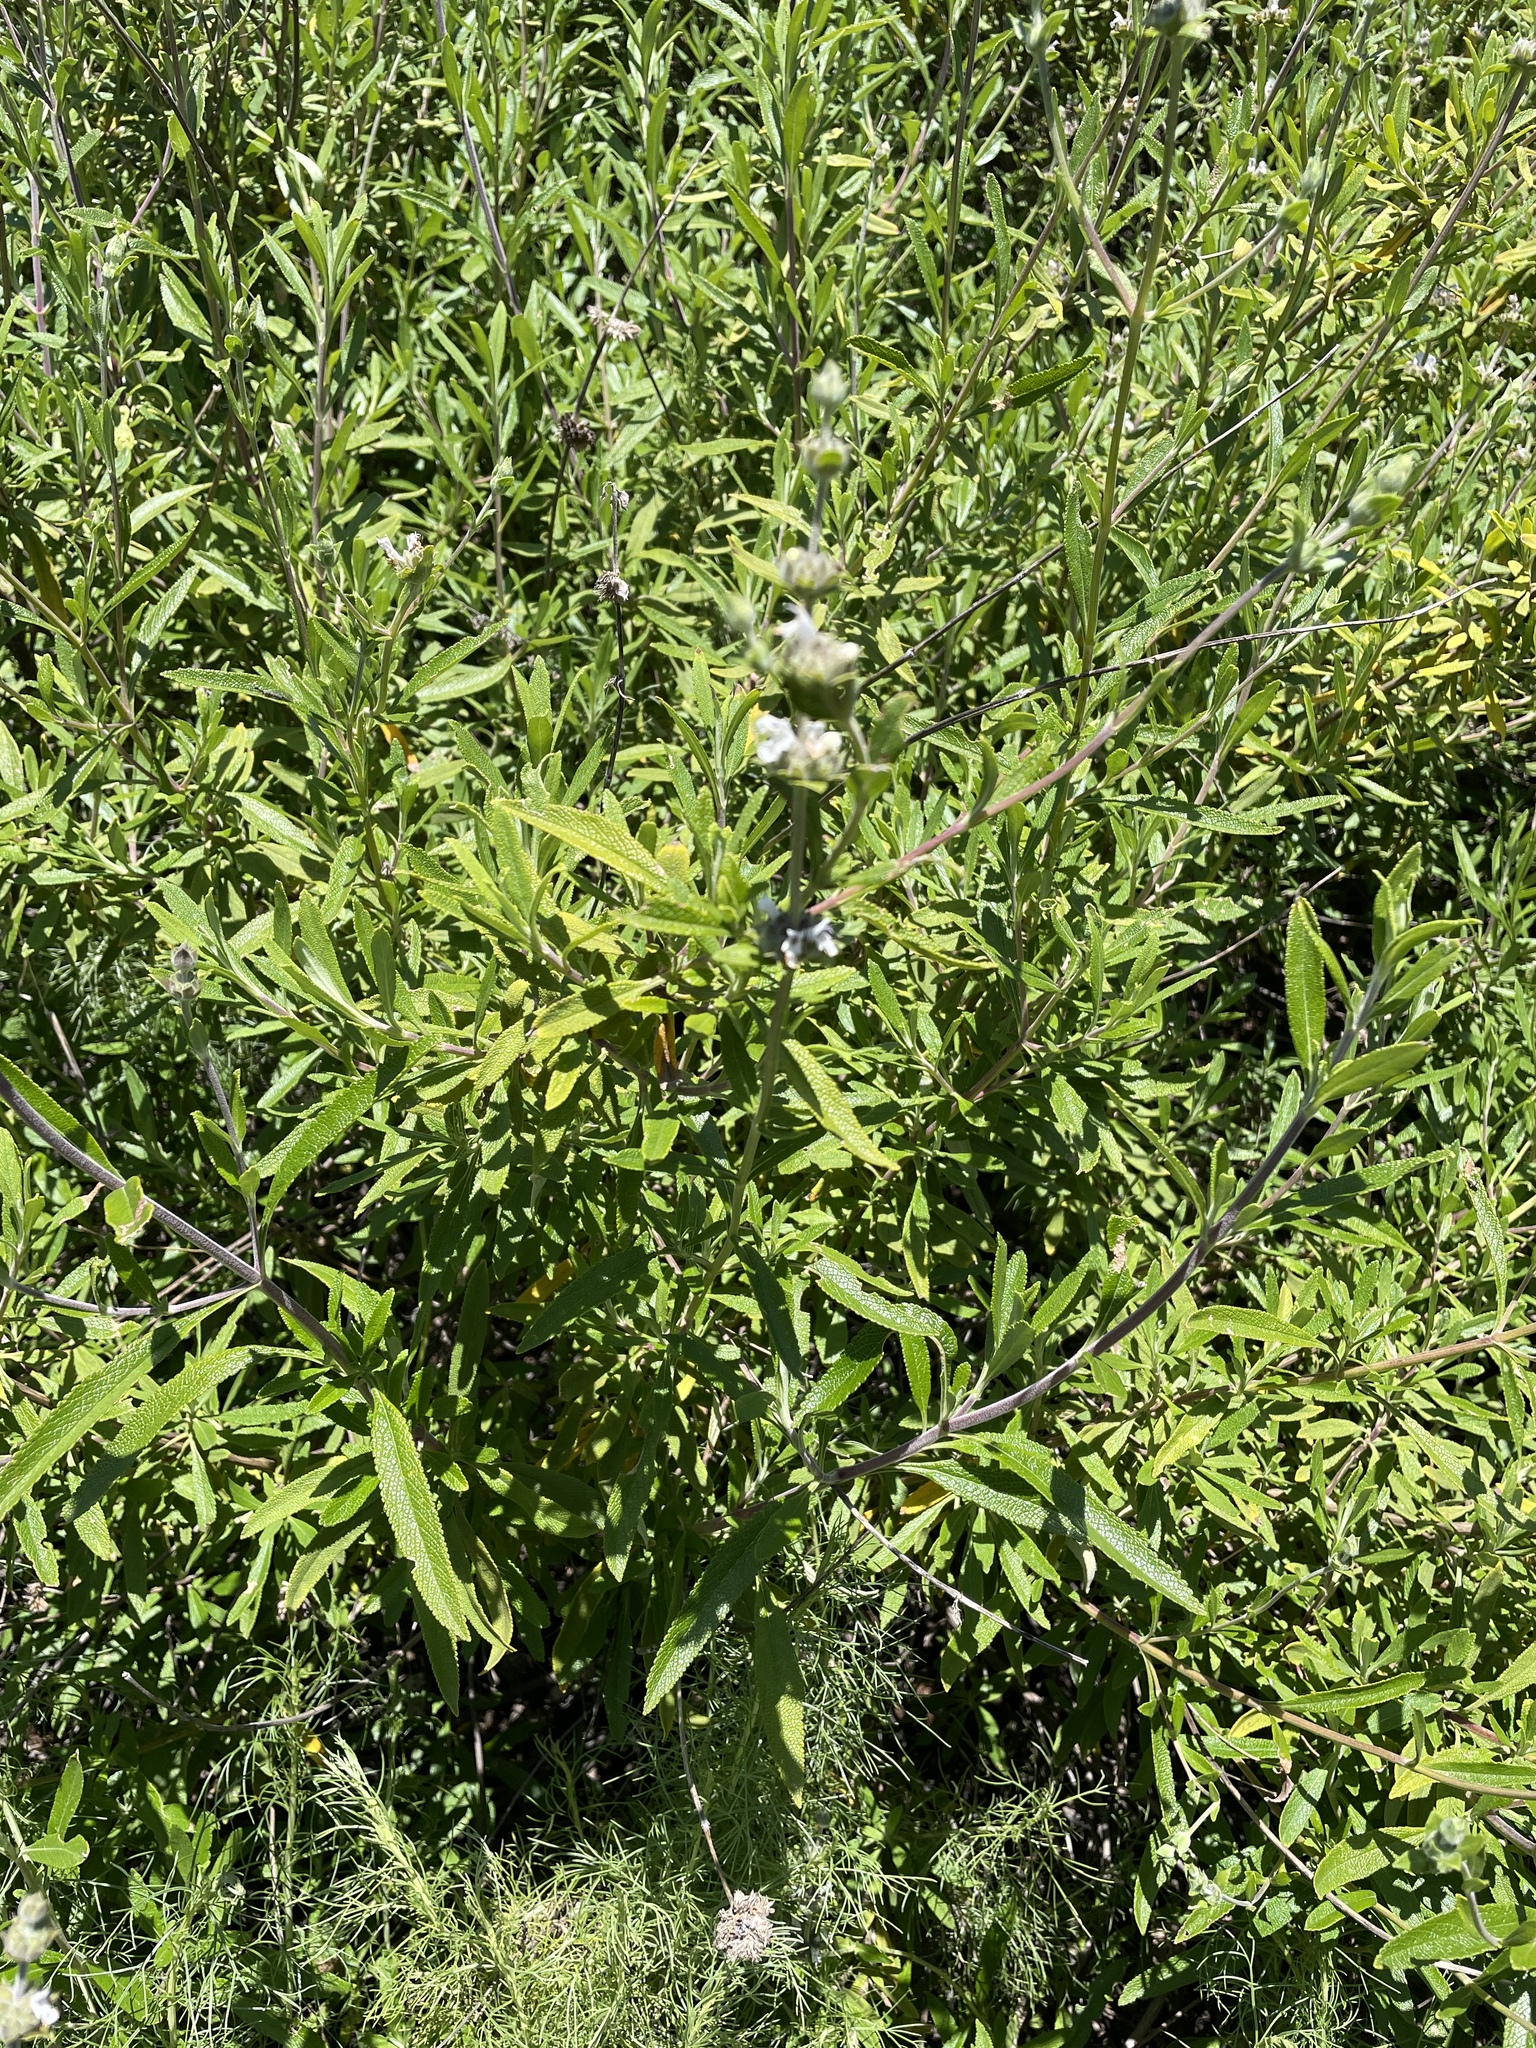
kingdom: Plantae
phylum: Tracheophyta
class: Magnoliopsida
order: Lamiales
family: Lamiaceae
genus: Salvia
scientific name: Salvia mellifera
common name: Black sage
